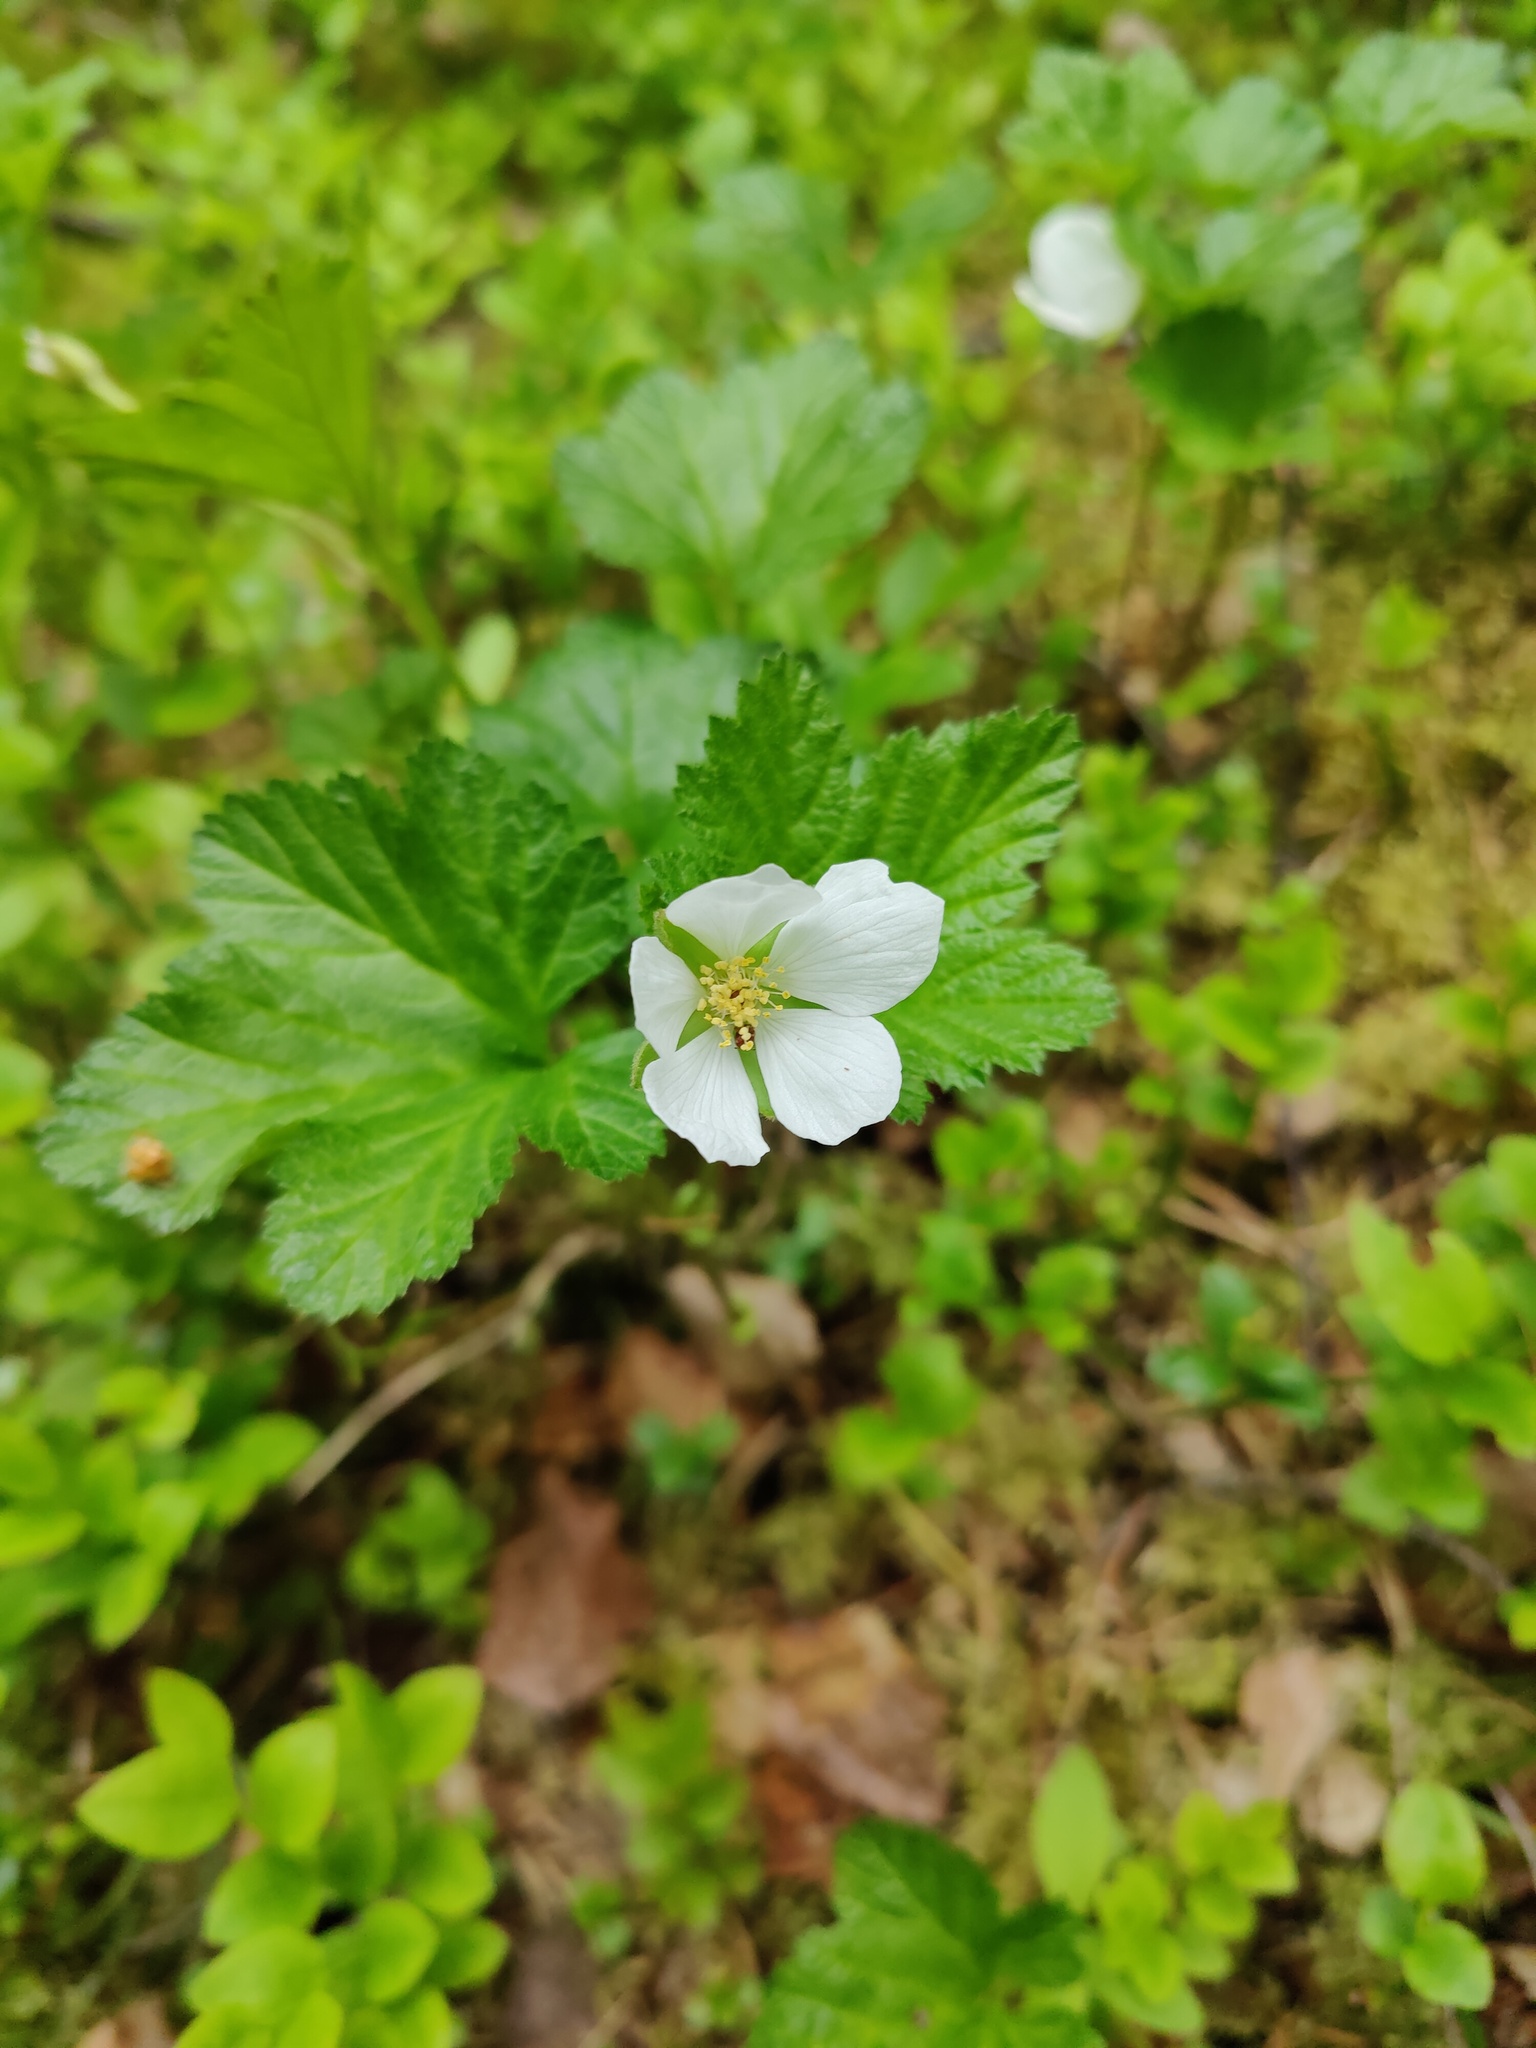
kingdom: Plantae
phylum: Tracheophyta
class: Magnoliopsida
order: Rosales
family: Rosaceae
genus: Rubus
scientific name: Rubus chamaemorus
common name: Cloudberry
